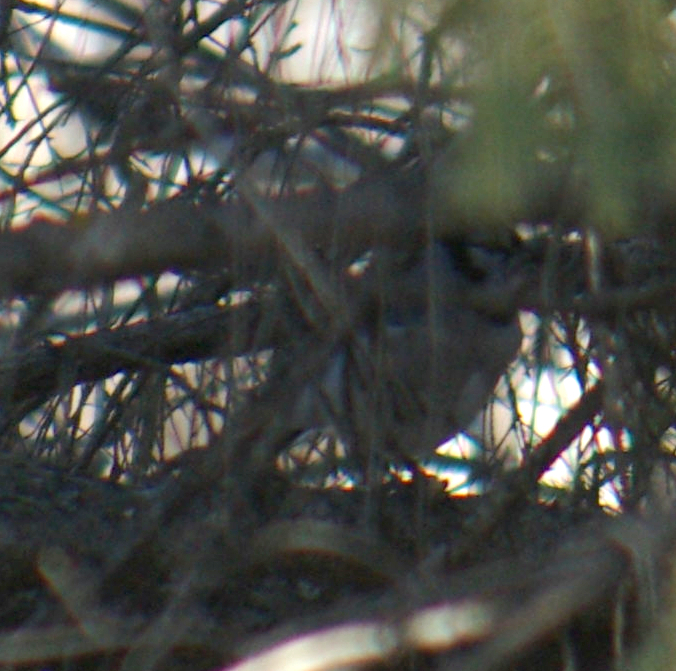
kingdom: Animalia
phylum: Chordata
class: Aves
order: Passeriformes
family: Corvidae
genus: Cyanocitta
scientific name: Cyanocitta cristata
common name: Blue jay
